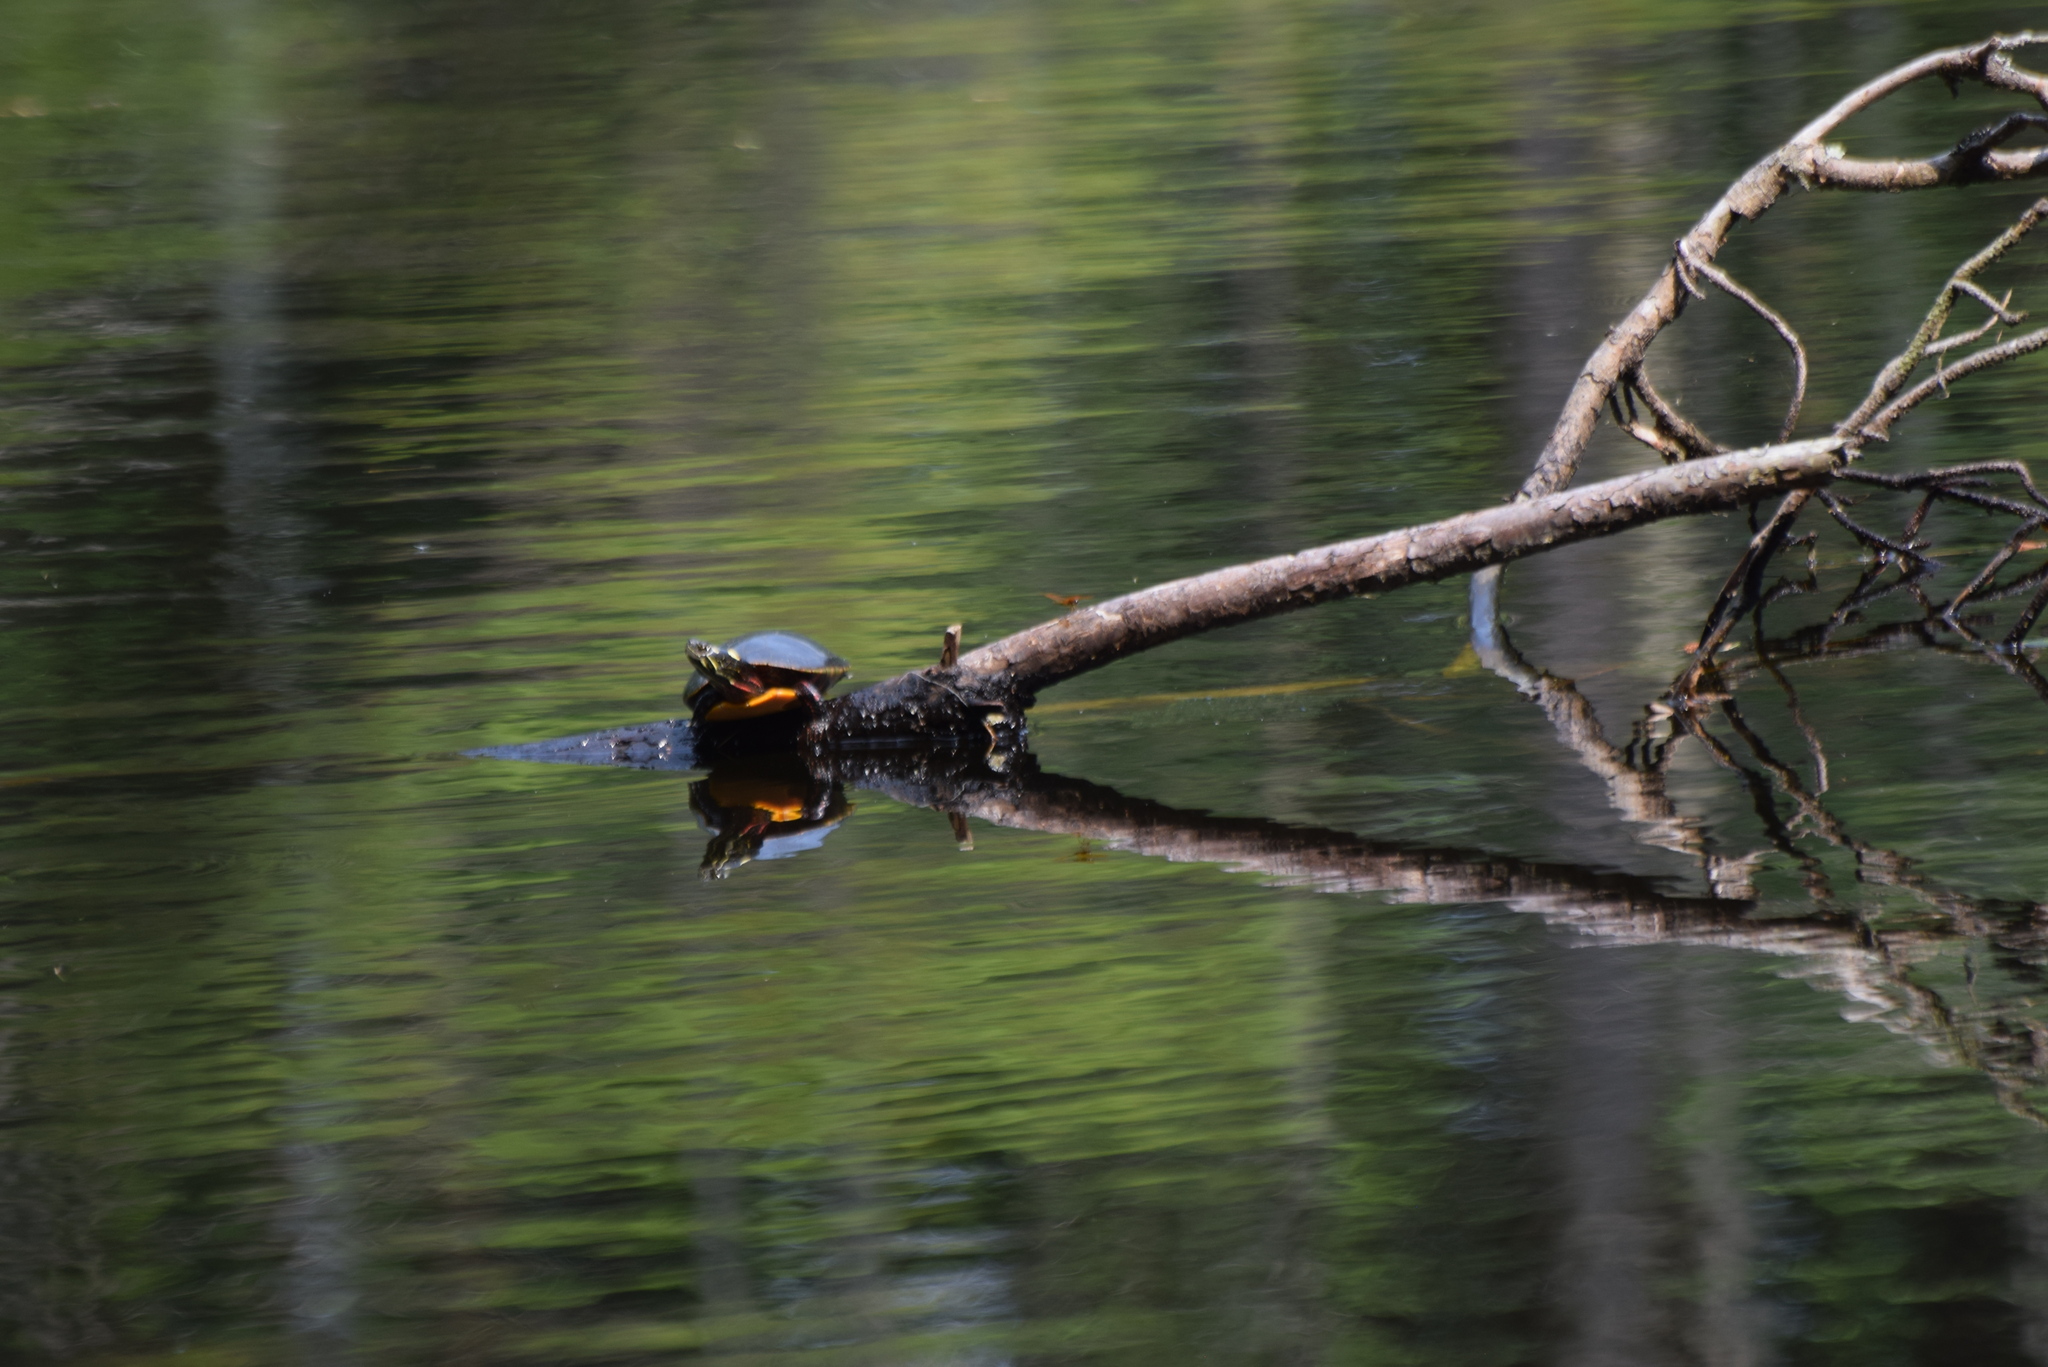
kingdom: Animalia
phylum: Chordata
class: Testudines
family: Emydidae
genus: Chrysemys
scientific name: Chrysemys picta
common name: Painted turtle
